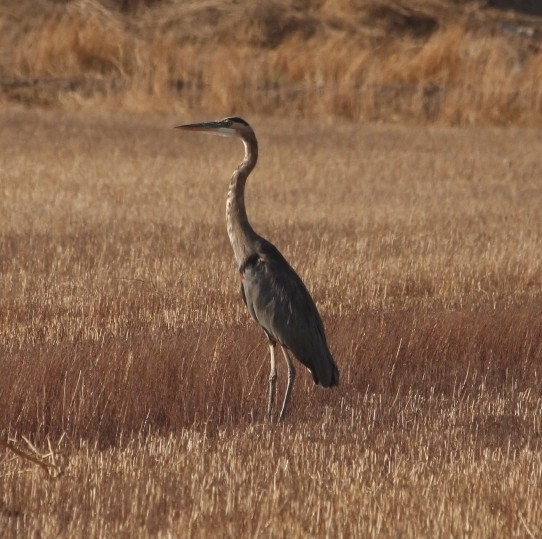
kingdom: Animalia
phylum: Chordata
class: Aves
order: Pelecaniformes
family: Ardeidae
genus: Ardea
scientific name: Ardea herodias
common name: Great blue heron
